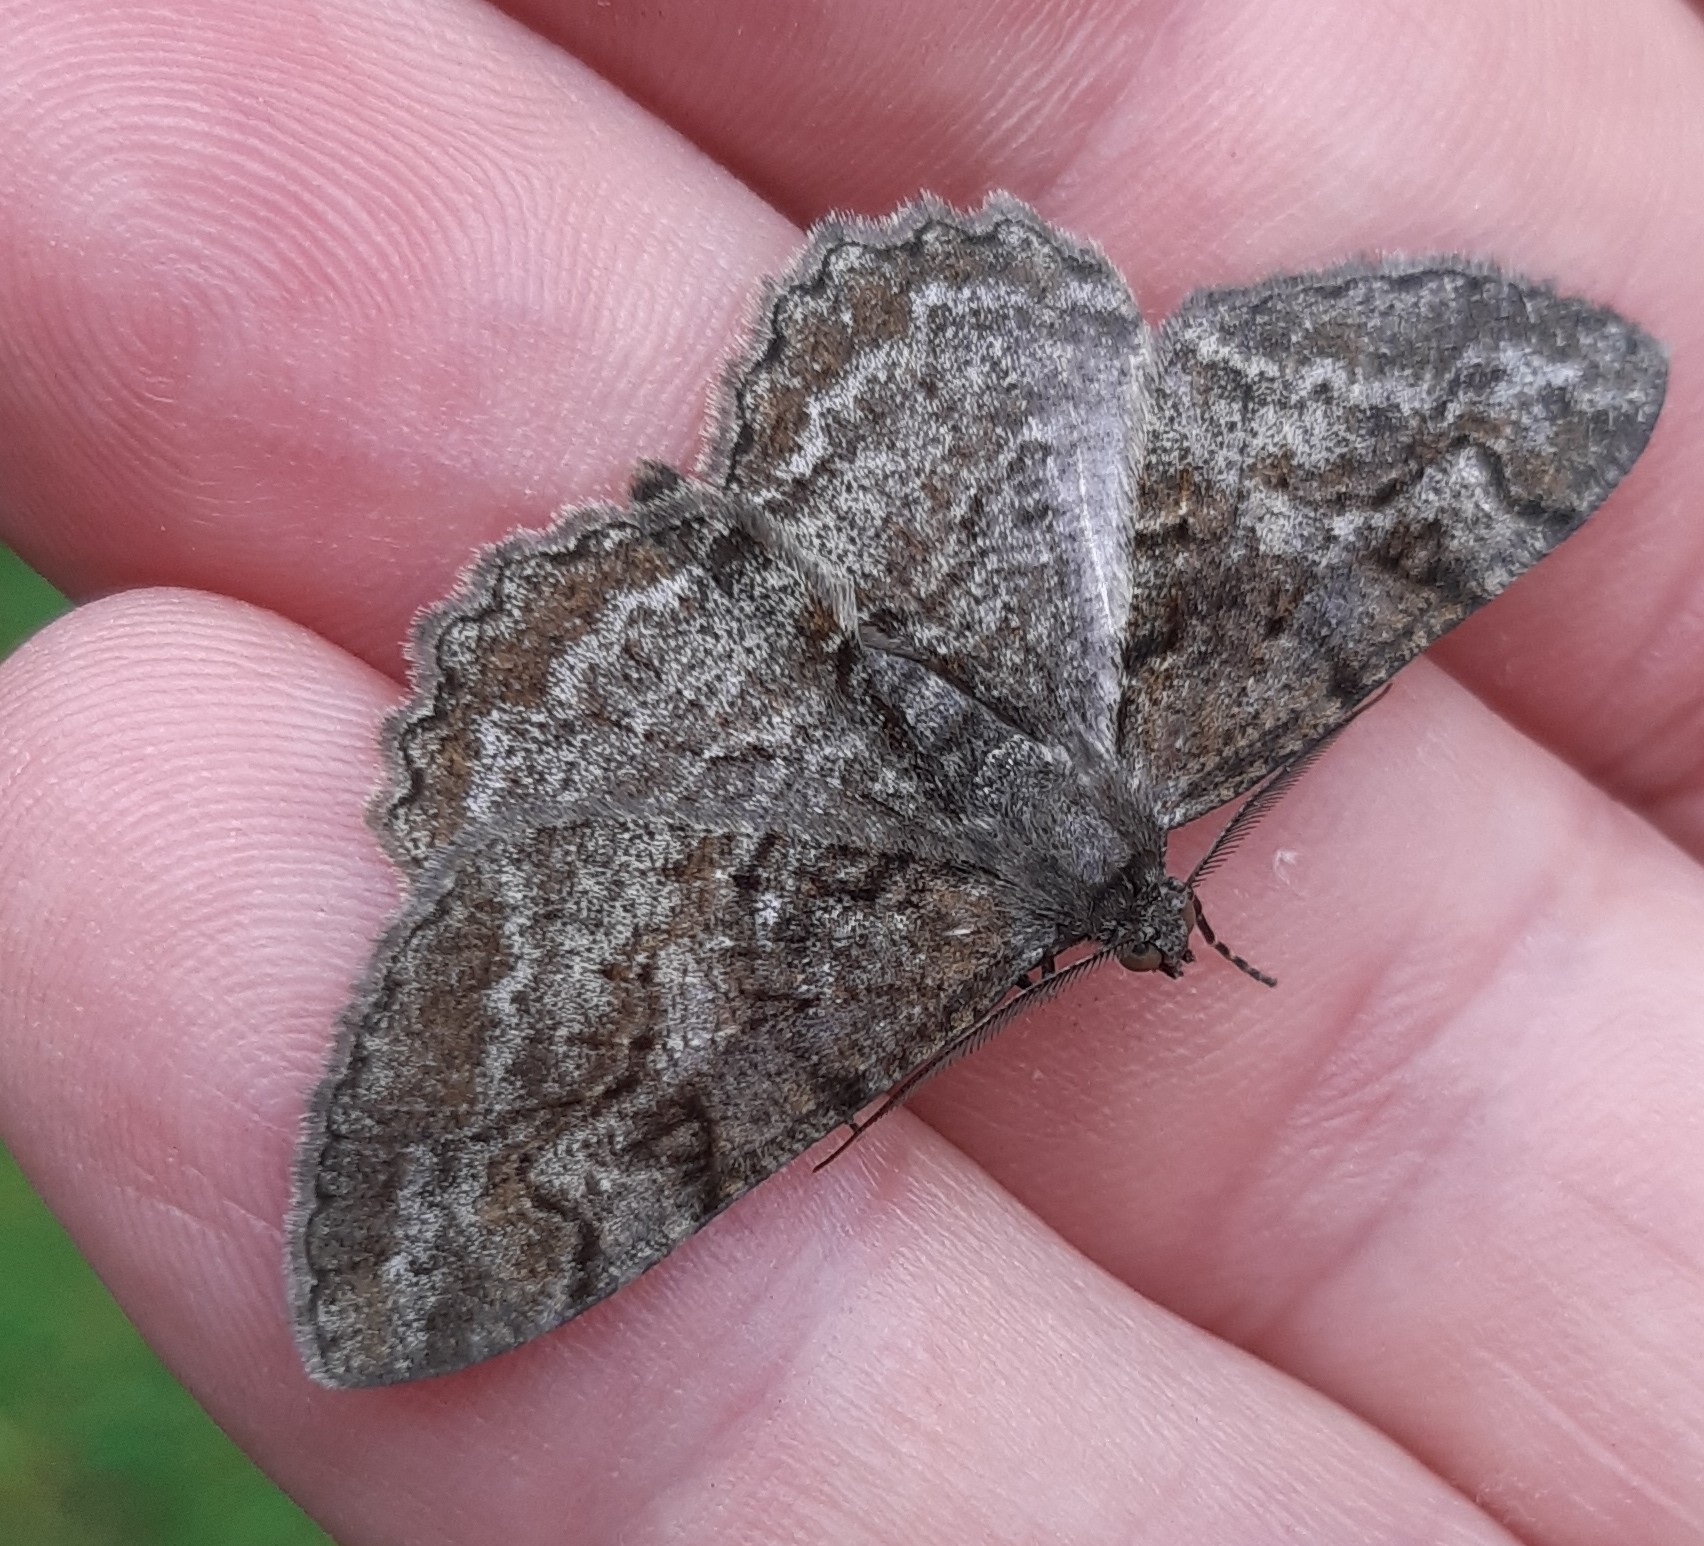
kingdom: Animalia
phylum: Arthropoda
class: Insecta
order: Lepidoptera
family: Geometridae
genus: Alcis
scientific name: Alcis repandata
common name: Mottled beauty
